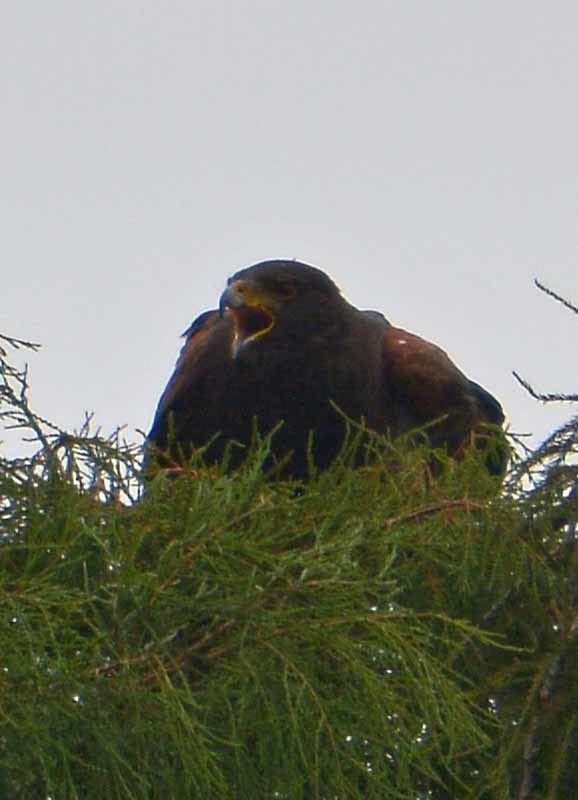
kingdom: Animalia
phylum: Chordata
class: Aves
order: Accipitriformes
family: Accipitridae
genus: Parabuteo
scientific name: Parabuteo unicinctus
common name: Harris's hawk
